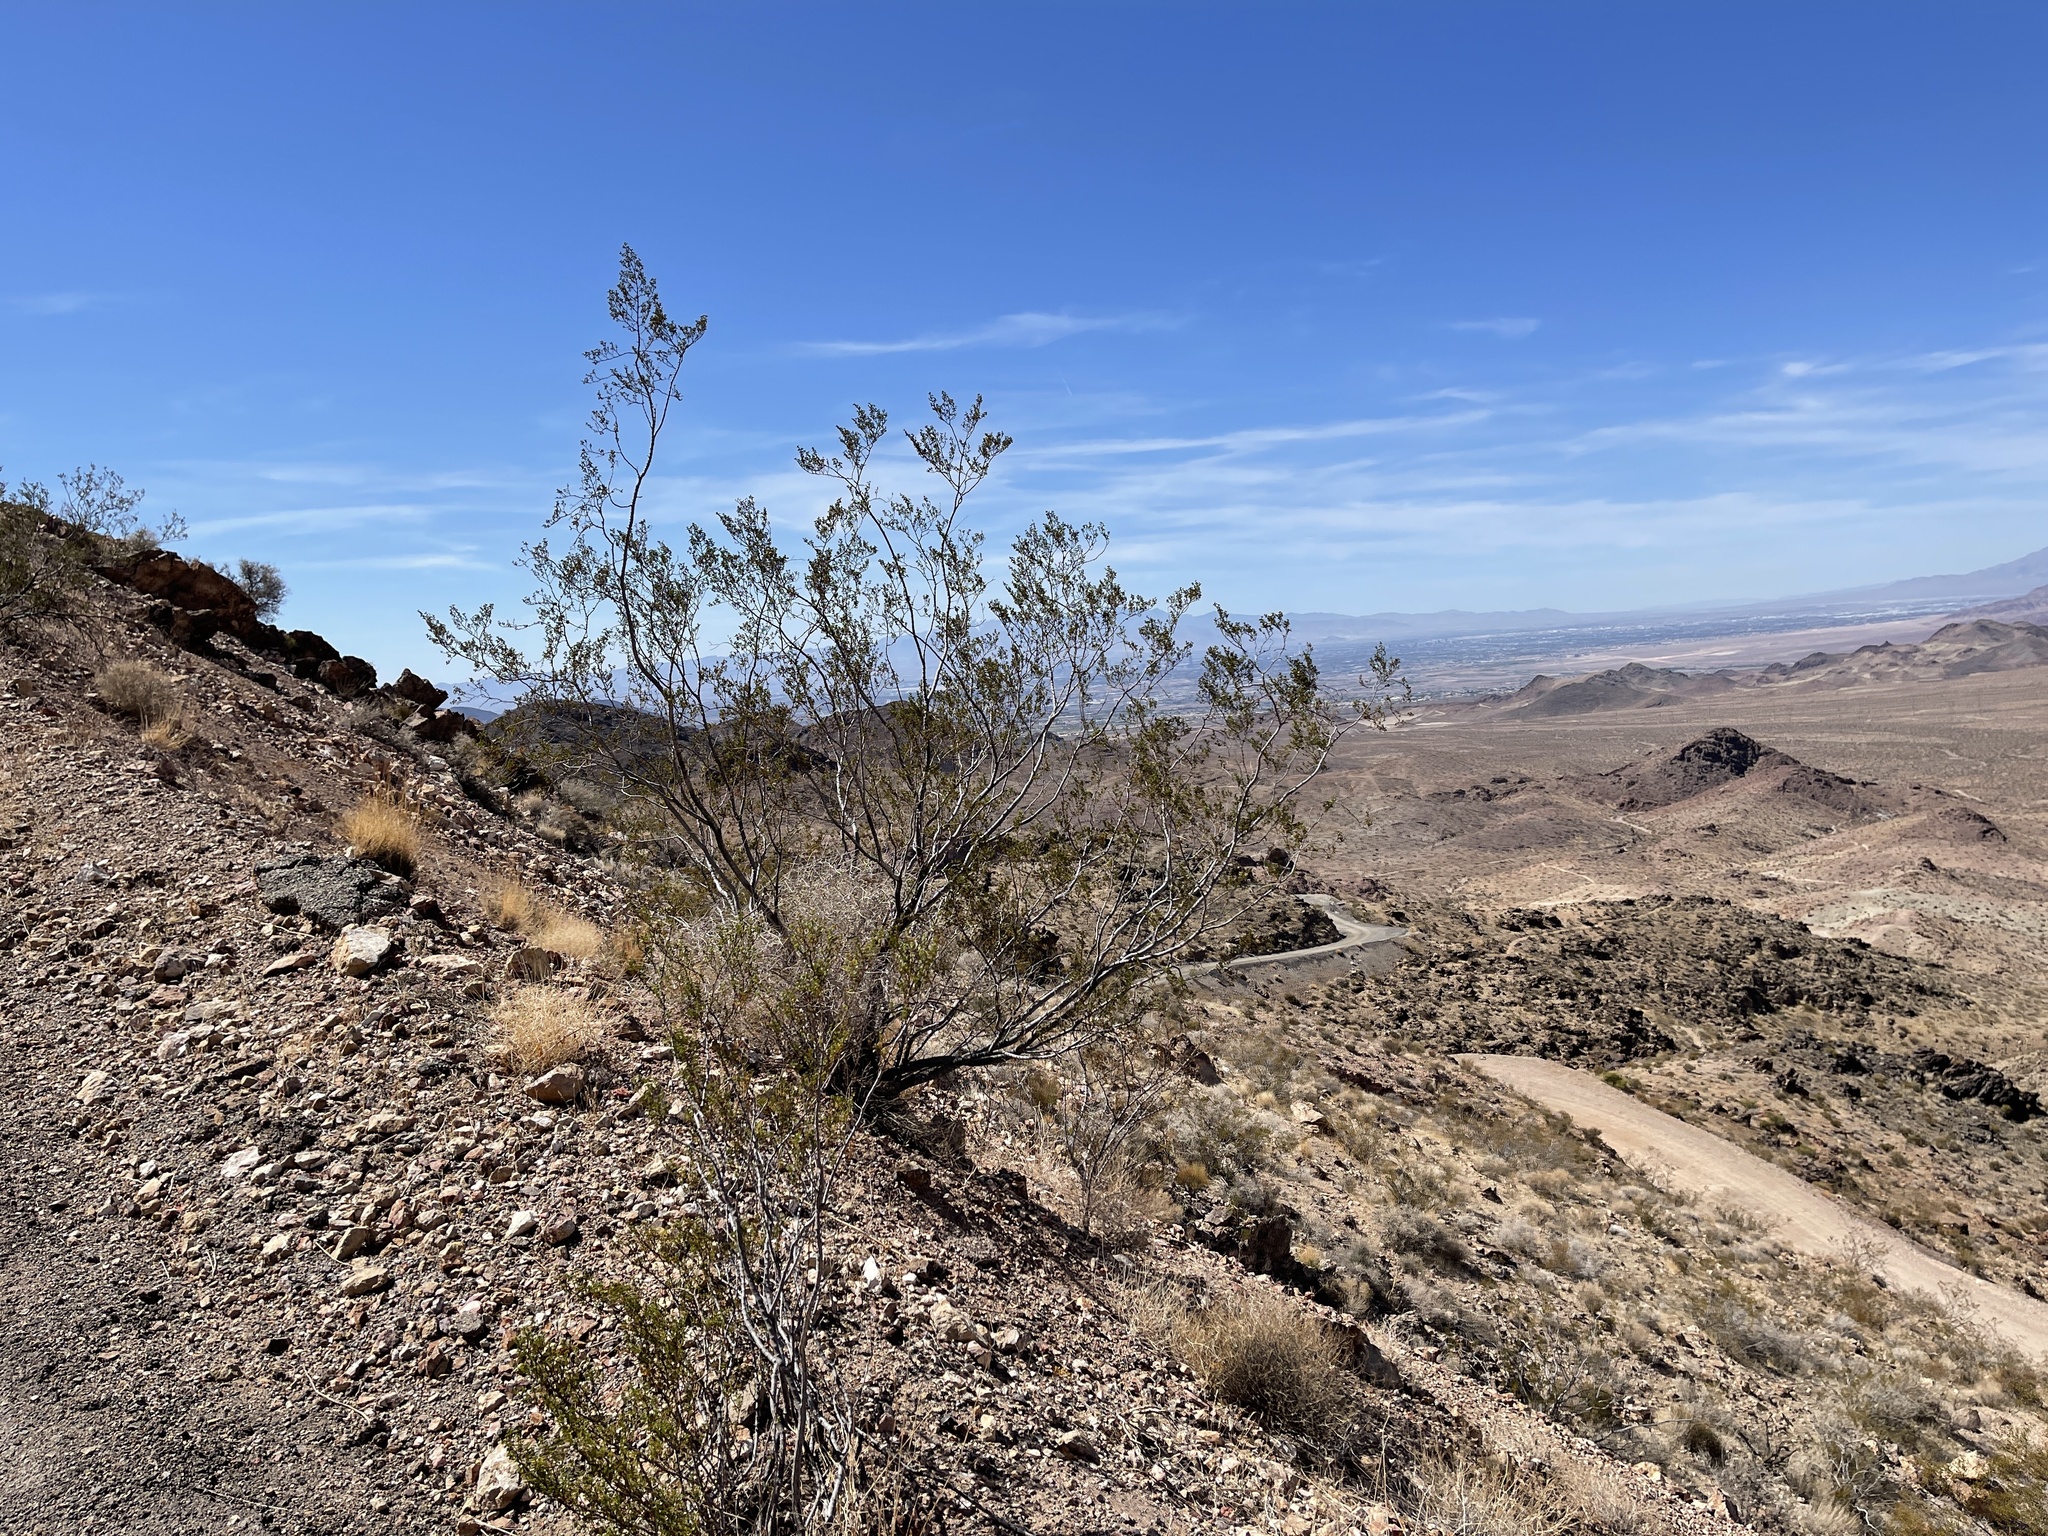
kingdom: Plantae
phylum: Tracheophyta
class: Magnoliopsida
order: Zygophyllales
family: Zygophyllaceae
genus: Larrea
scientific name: Larrea tridentata
